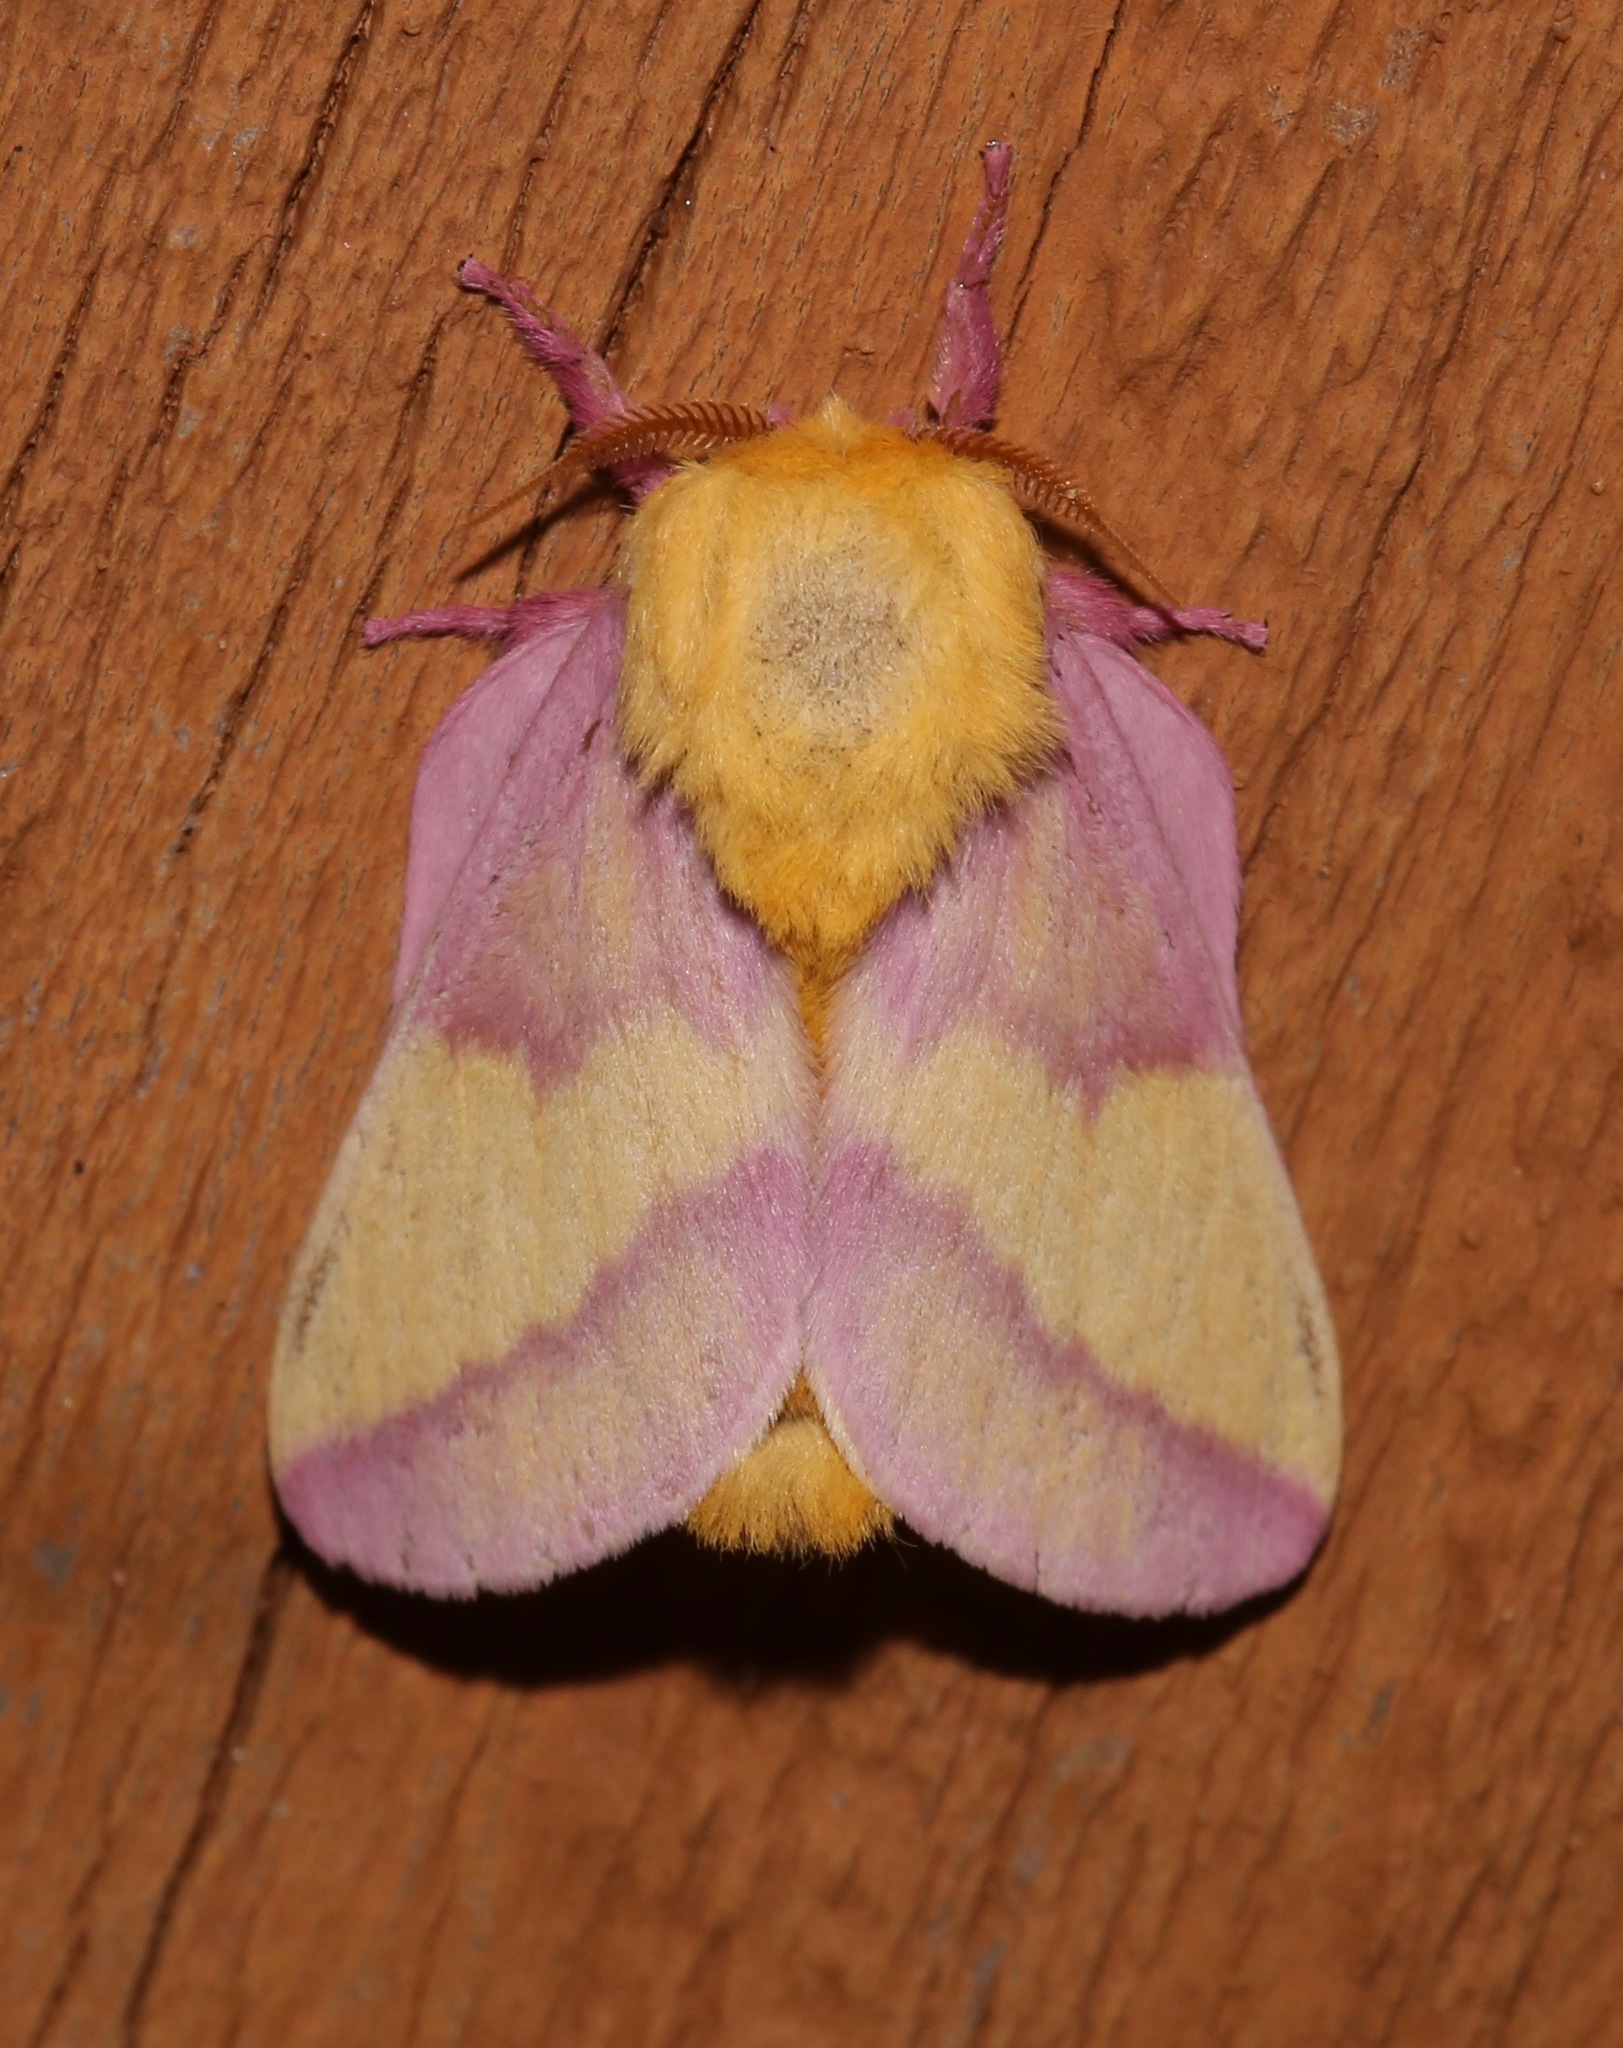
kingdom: Animalia
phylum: Arthropoda
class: Insecta
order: Lepidoptera
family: Saturniidae
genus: Dryocampa
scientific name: Dryocampa rubicunda
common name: Rosy maple moth
